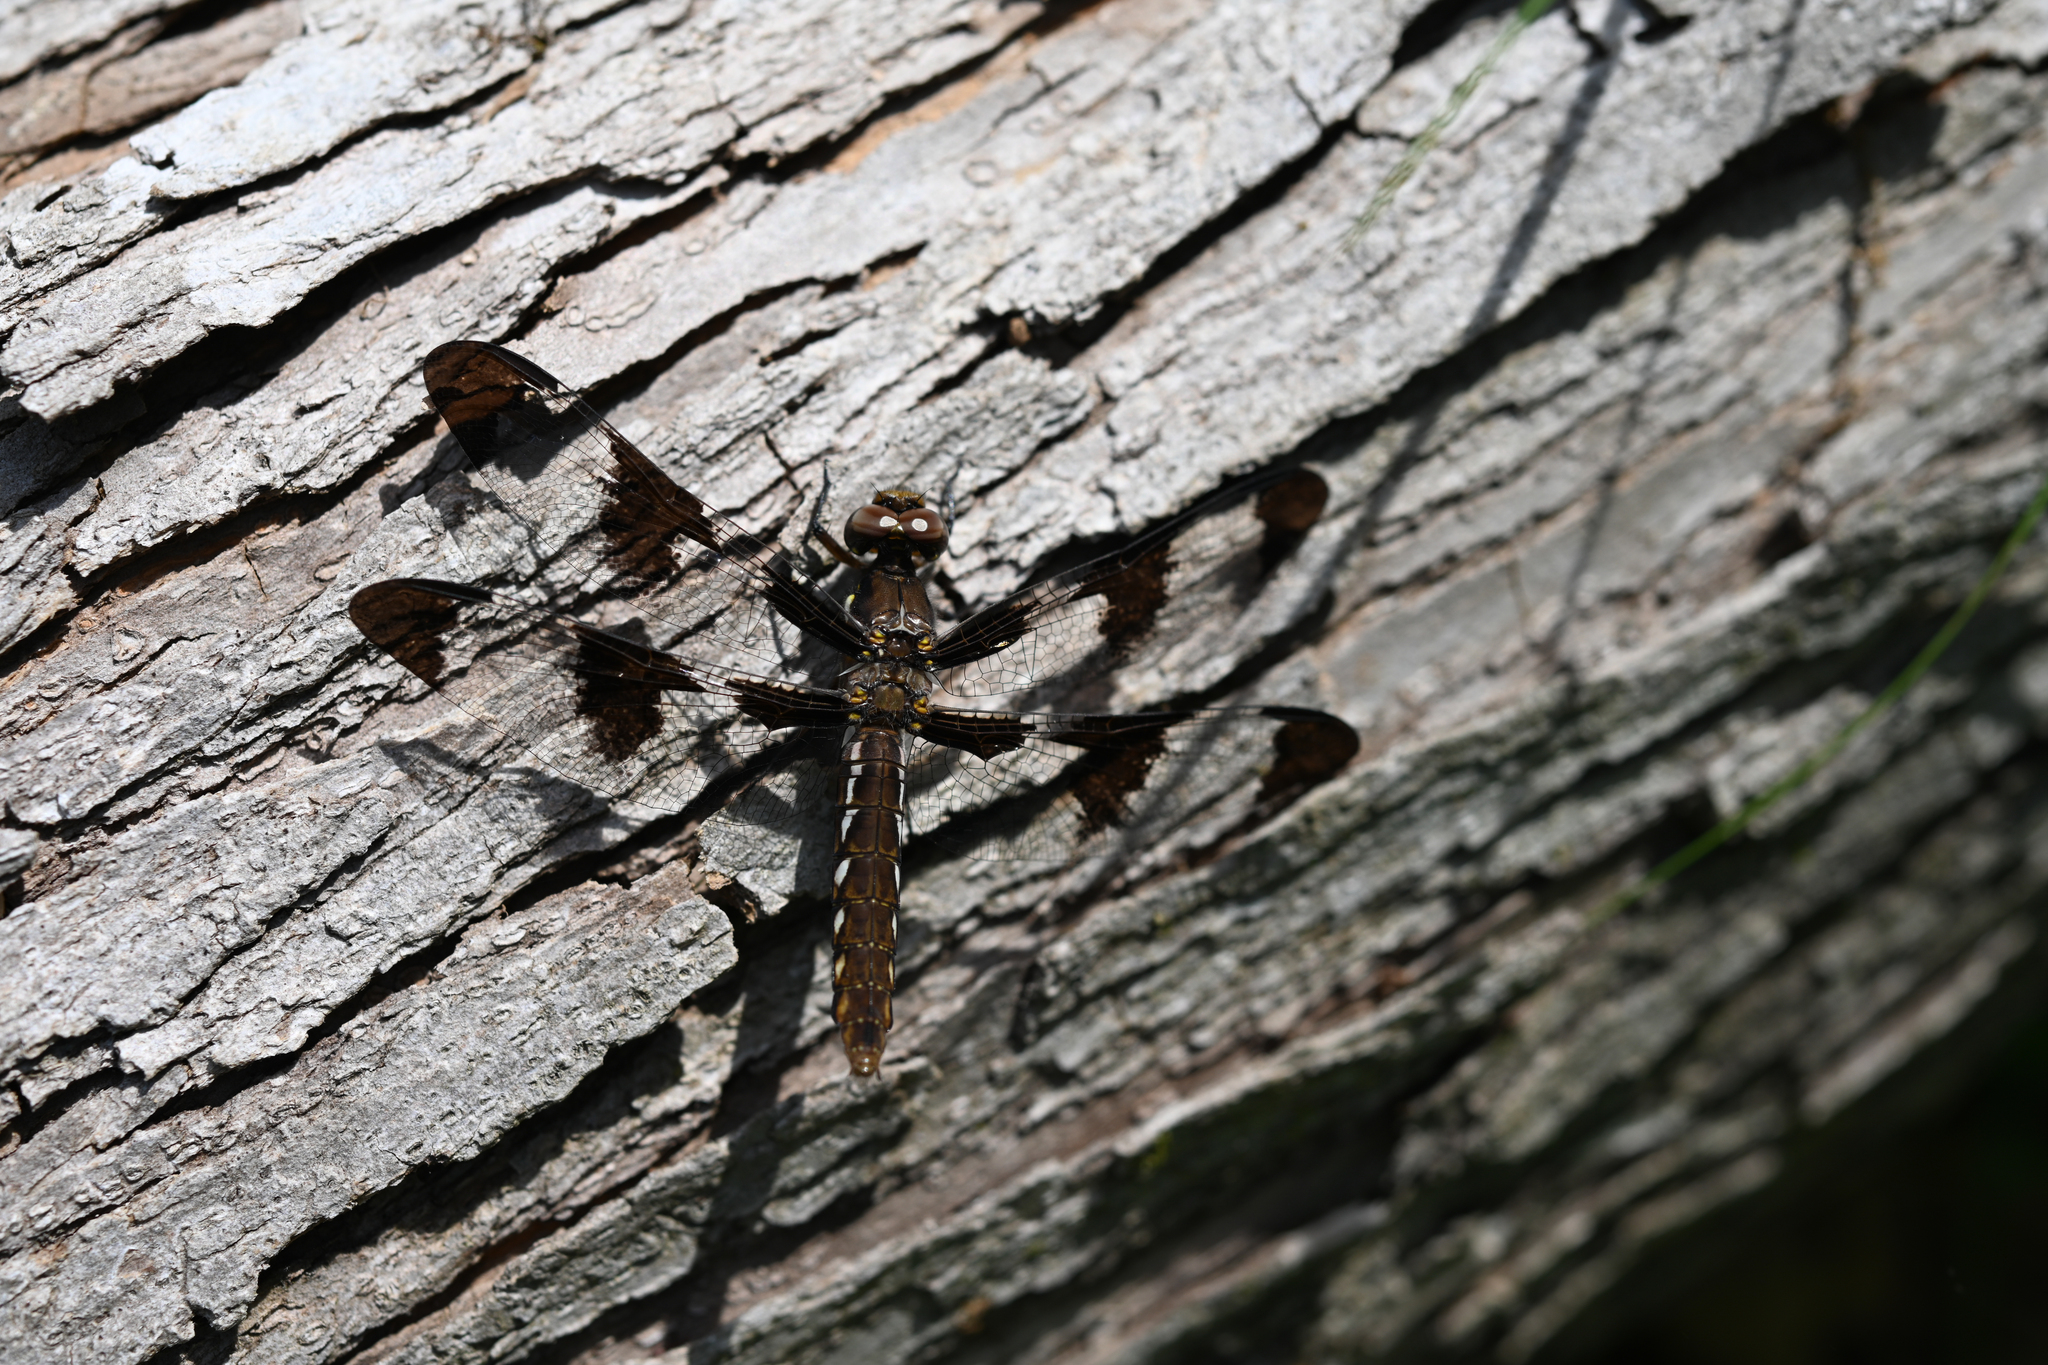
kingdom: Animalia
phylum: Arthropoda
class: Insecta
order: Odonata
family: Libellulidae
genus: Plathemis
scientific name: Plathemis lydia
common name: Common whitetail
